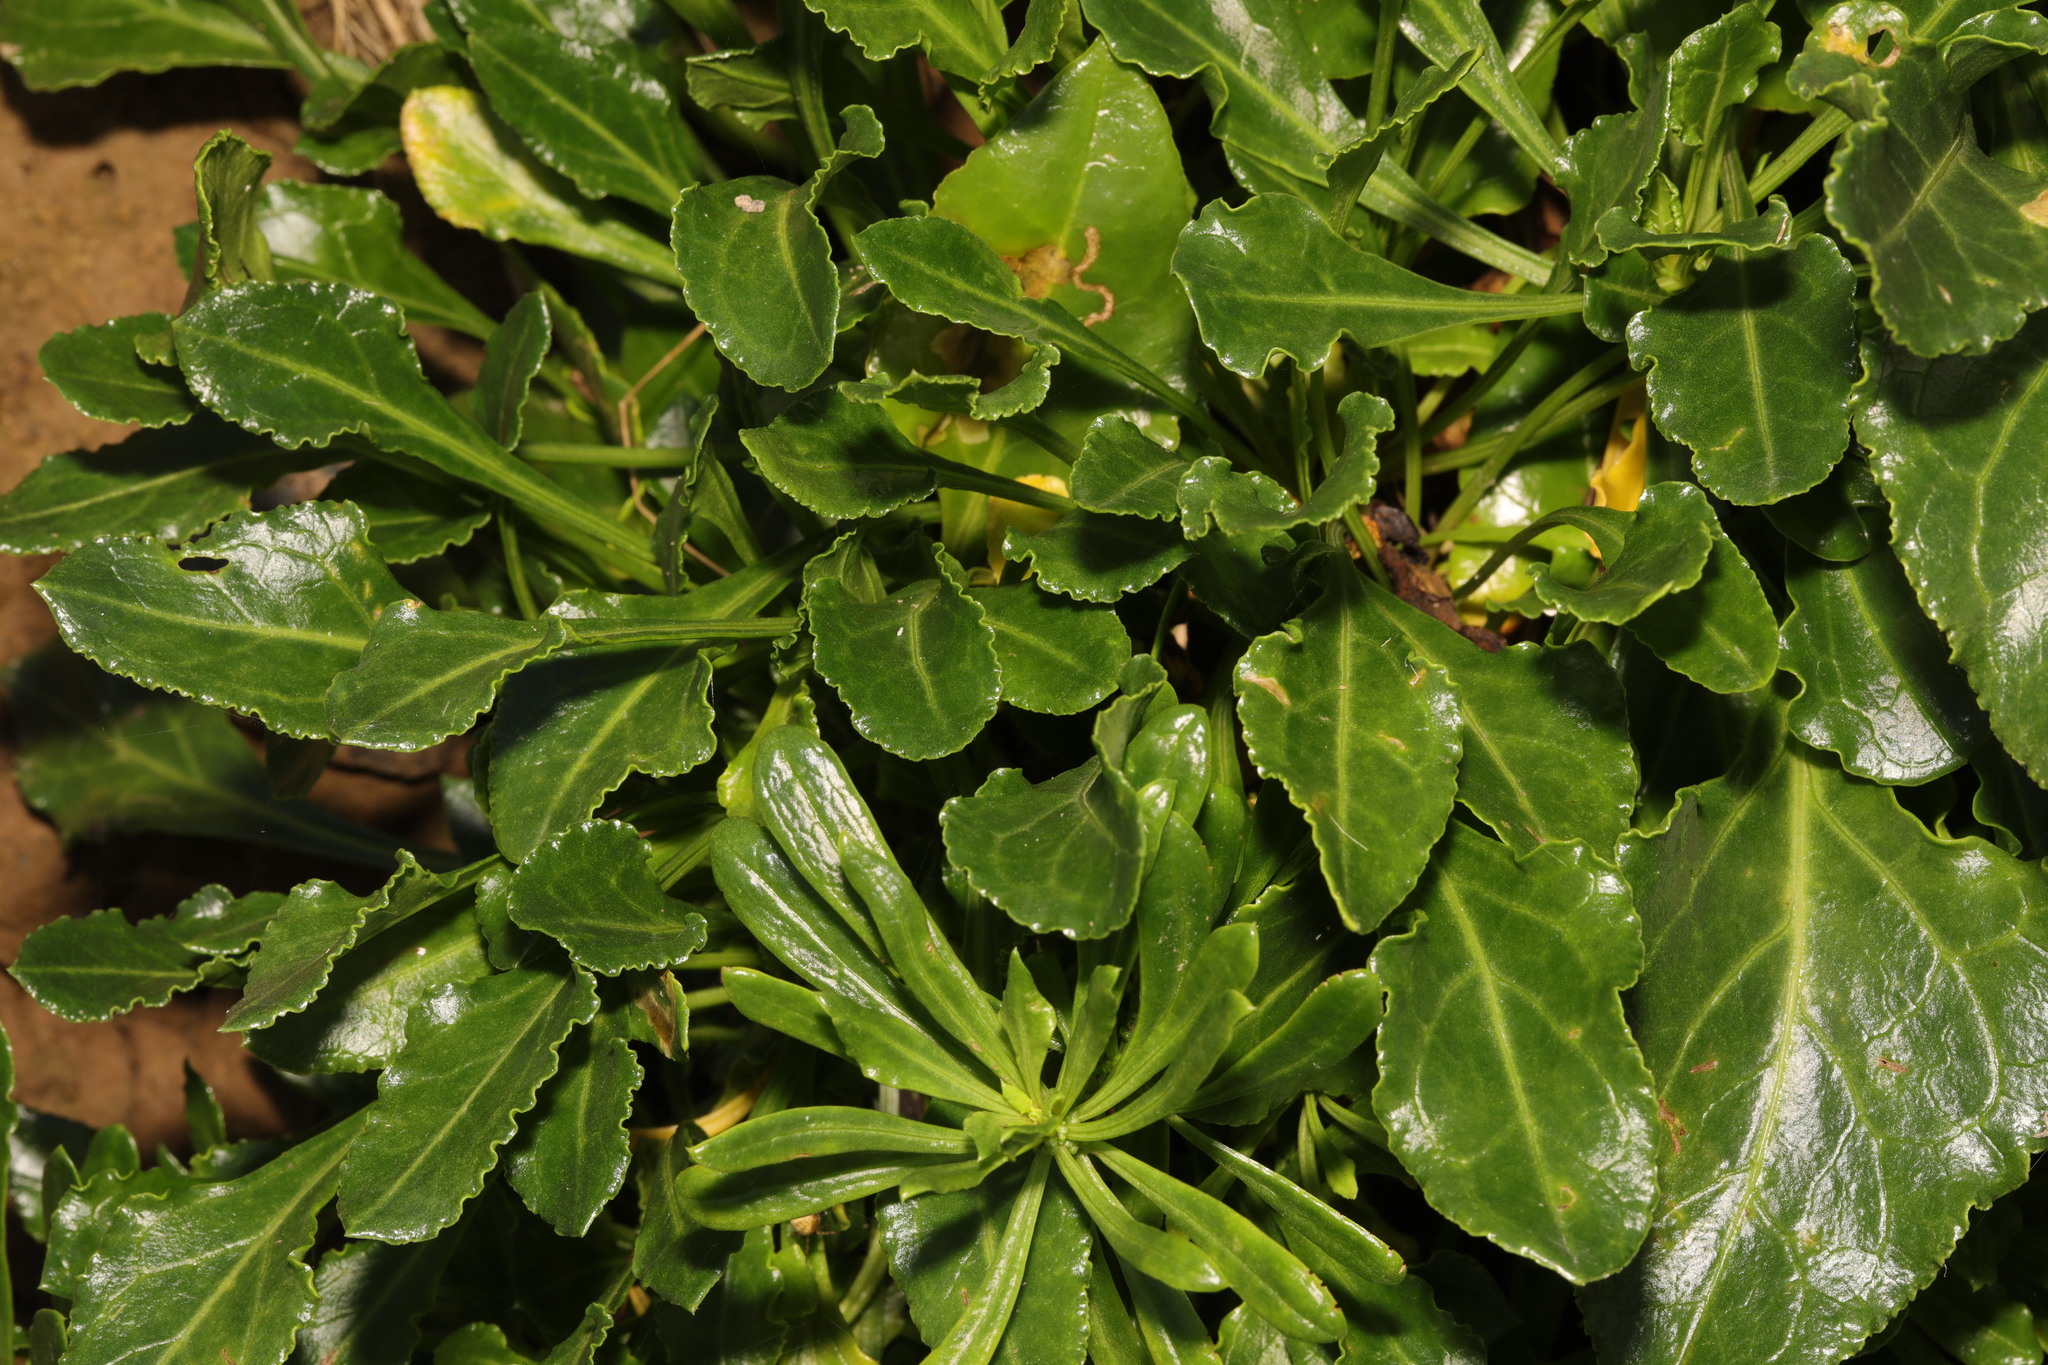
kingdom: Plantae
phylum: Tracheophyta
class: Magnoliopsida
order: Caryophyllales
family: Amaranthaceae
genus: Beta
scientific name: Beta vulgaris
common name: Beet
